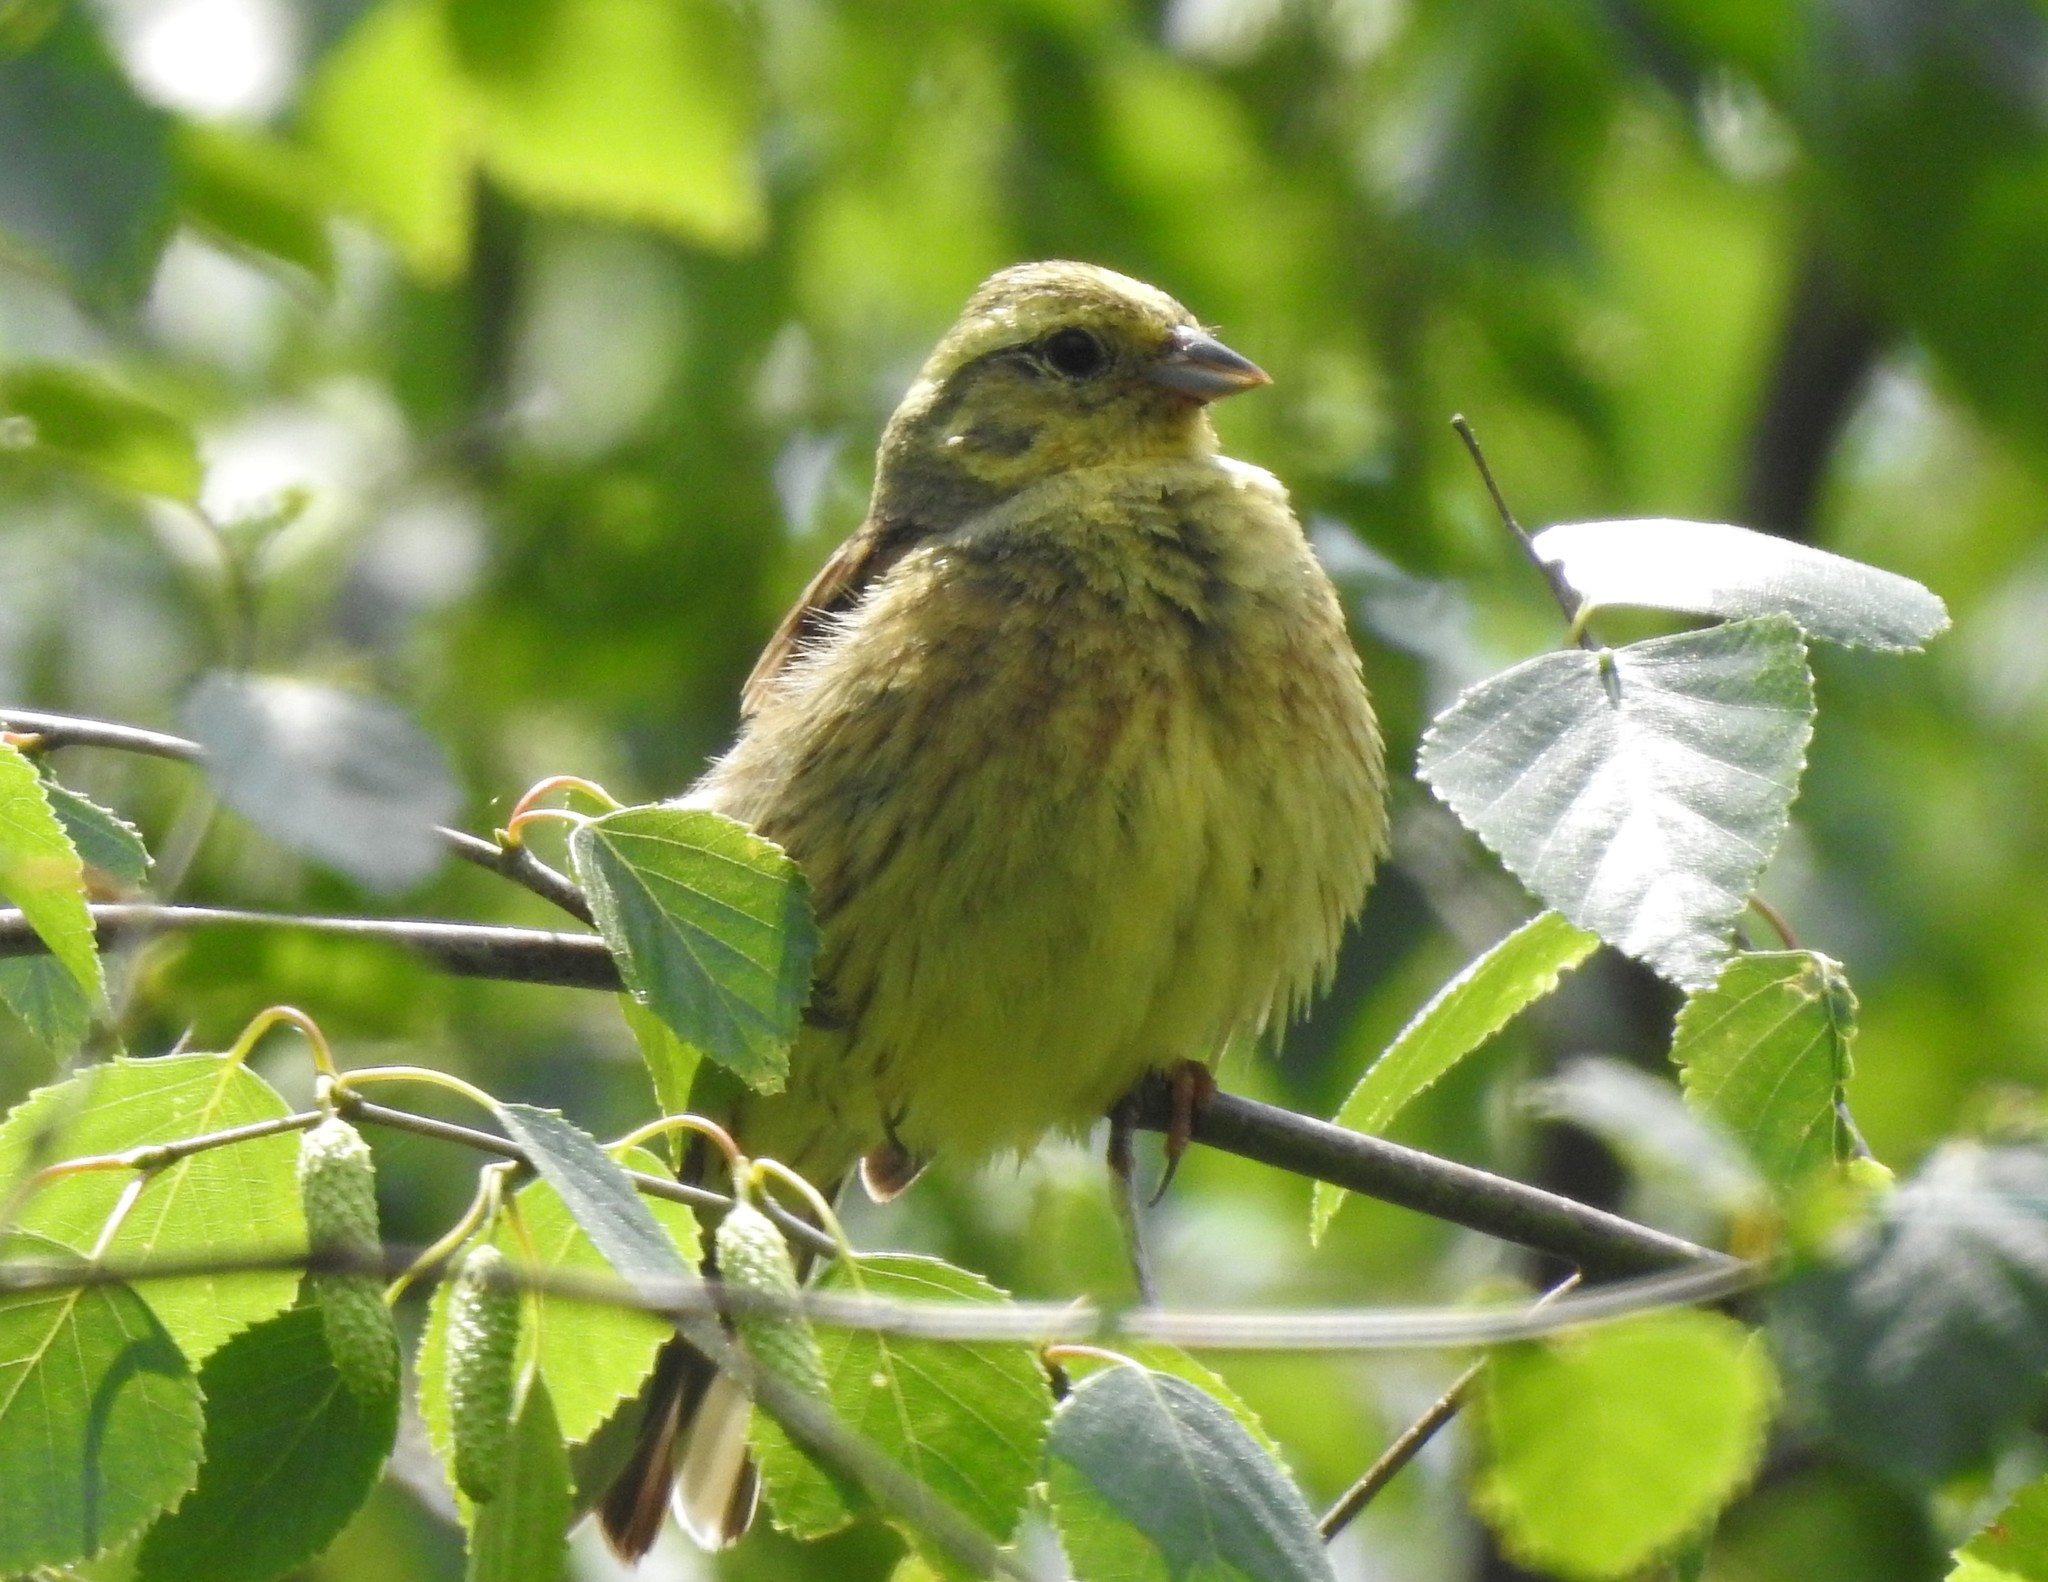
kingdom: Animalia
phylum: Chordata
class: Aves
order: Passeriformes
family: Emberizidae
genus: Emberiza
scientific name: Emberiza citrinella
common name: Yellowhammer
